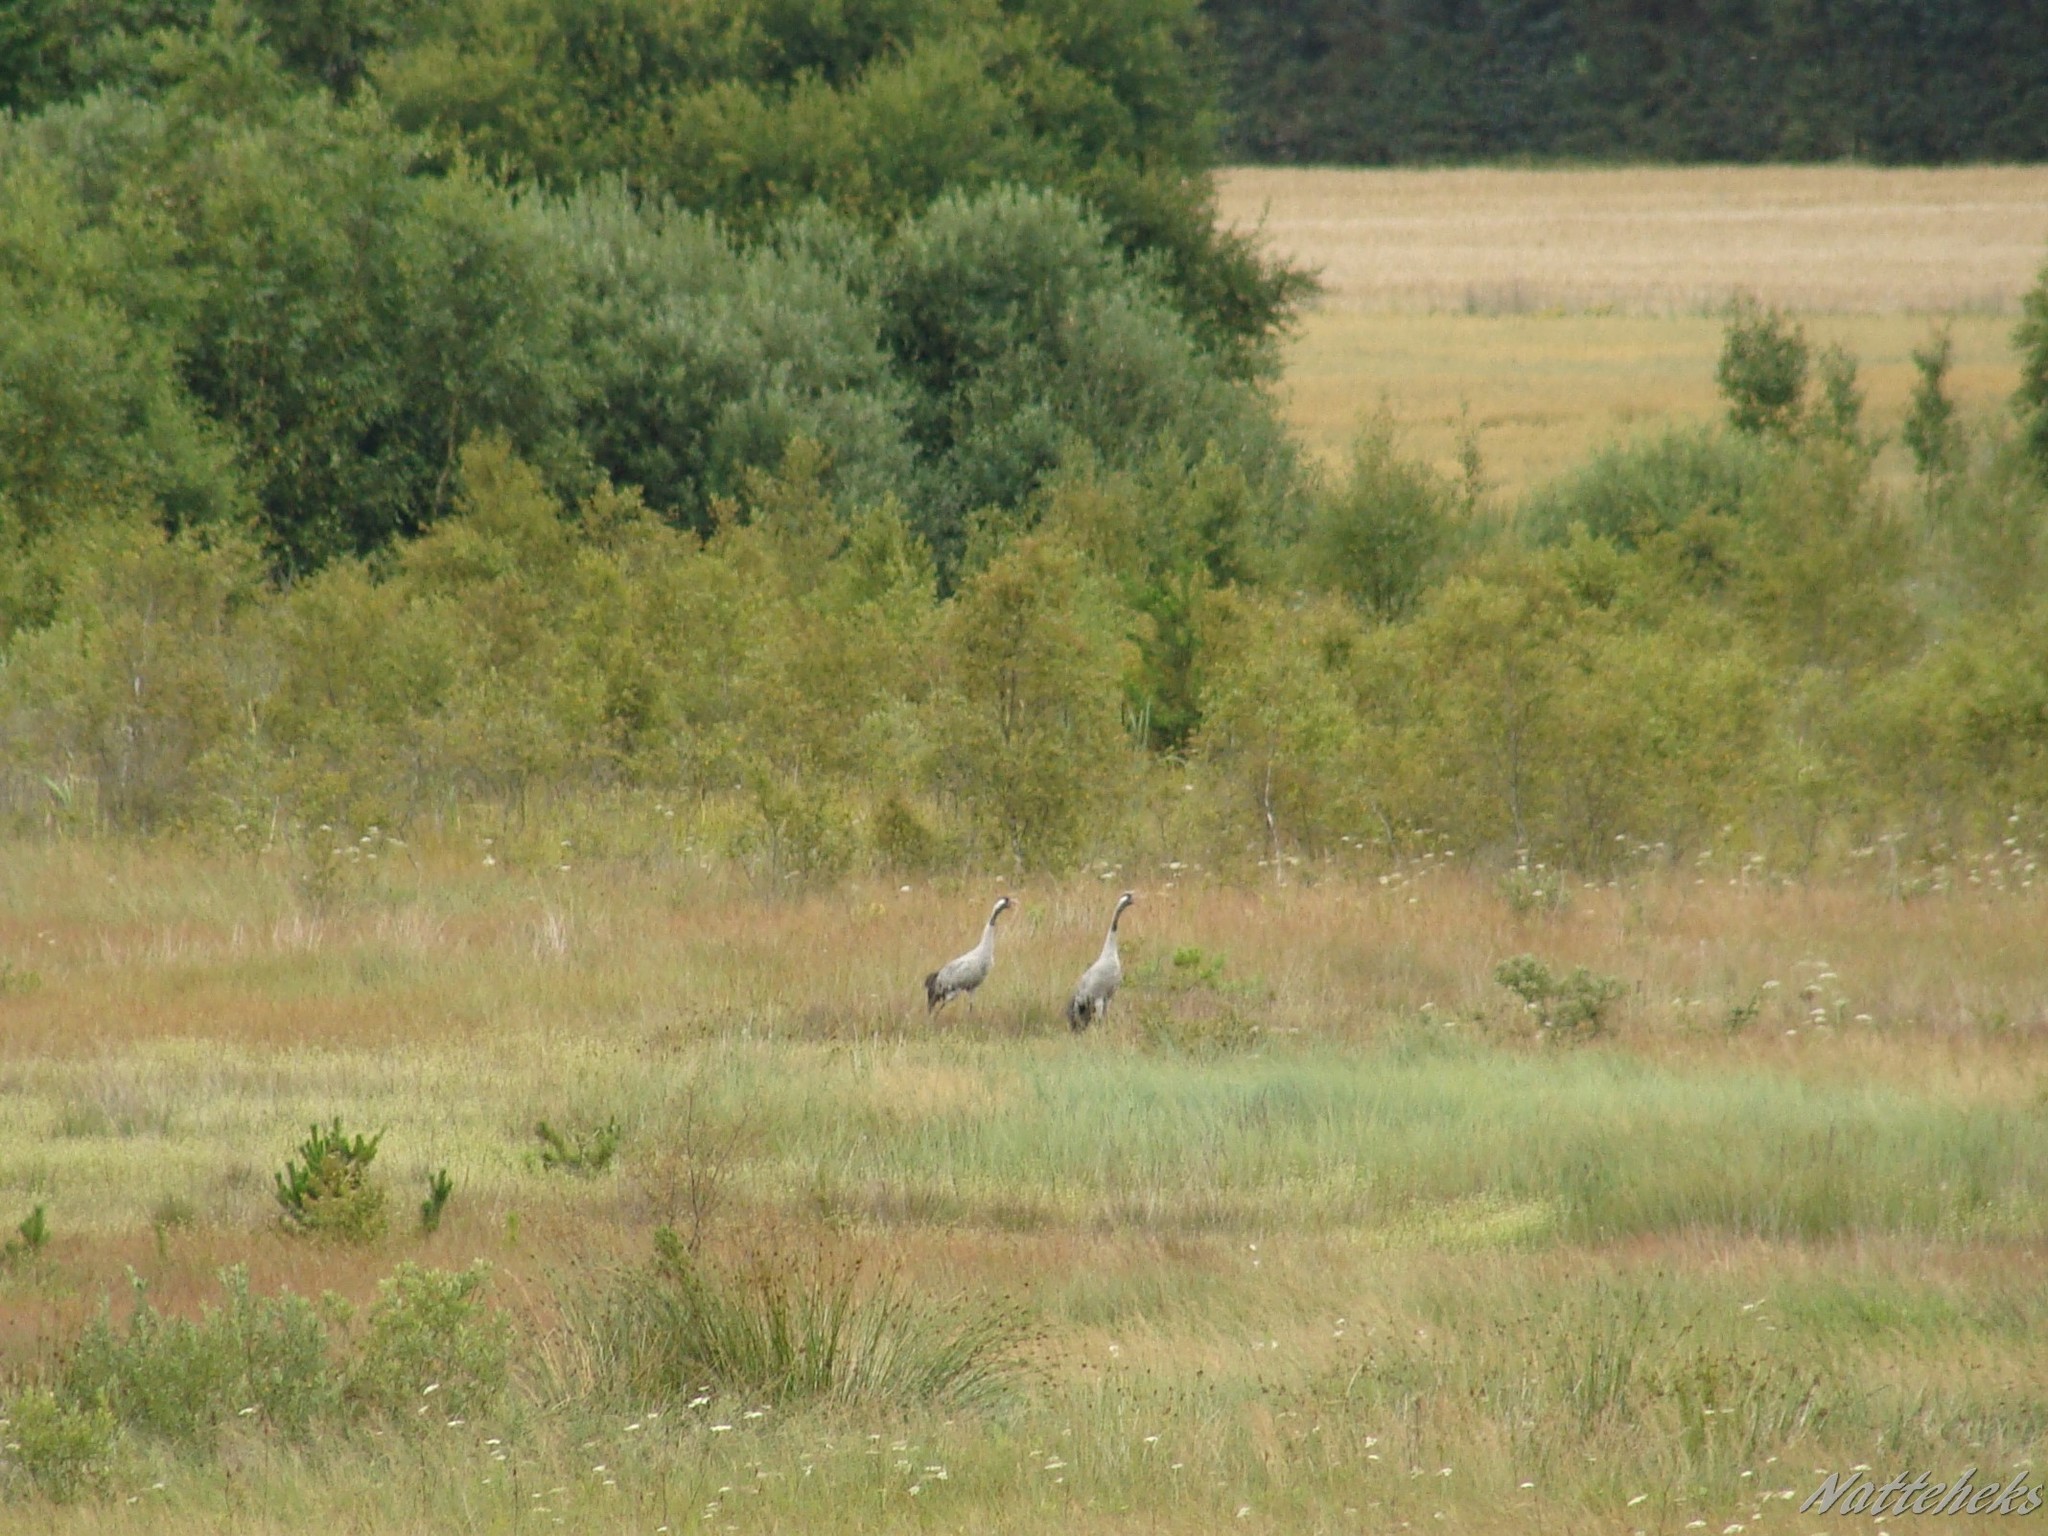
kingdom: Animalia
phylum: Chordata
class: Aves
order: Gruiformes
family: Gruidae
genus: Grus
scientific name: Grus grus
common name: Common crane
